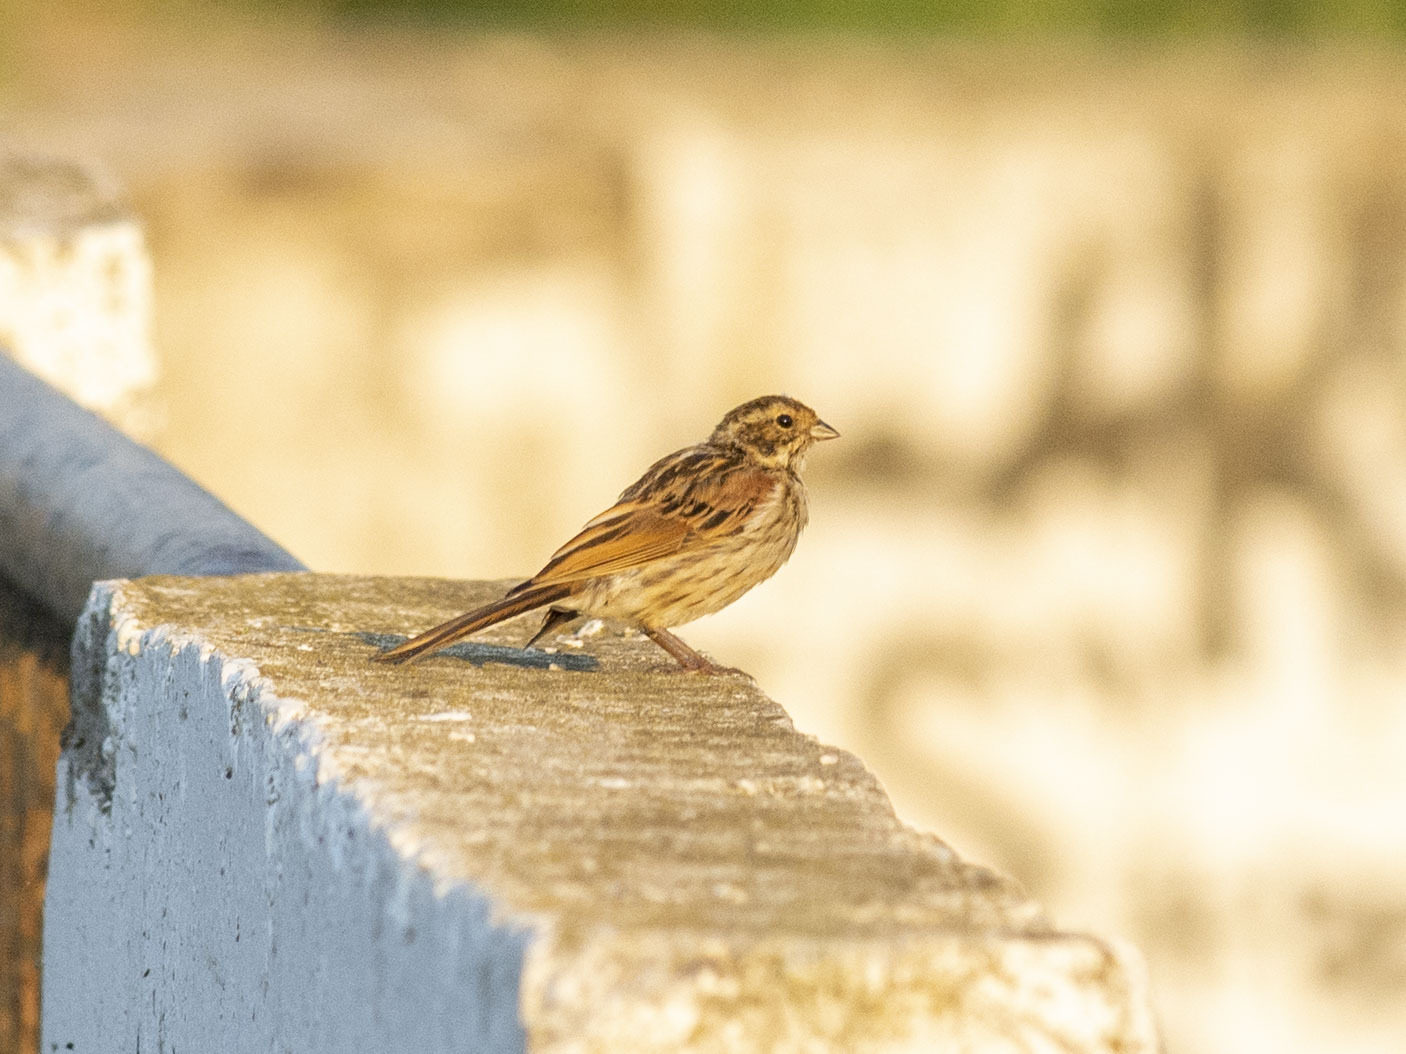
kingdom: Animalia
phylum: Chordata
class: Aves
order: Passeriformes
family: Emberizidae
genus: Emberiza
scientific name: Emberiza schoeniclus
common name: Reed bunting
